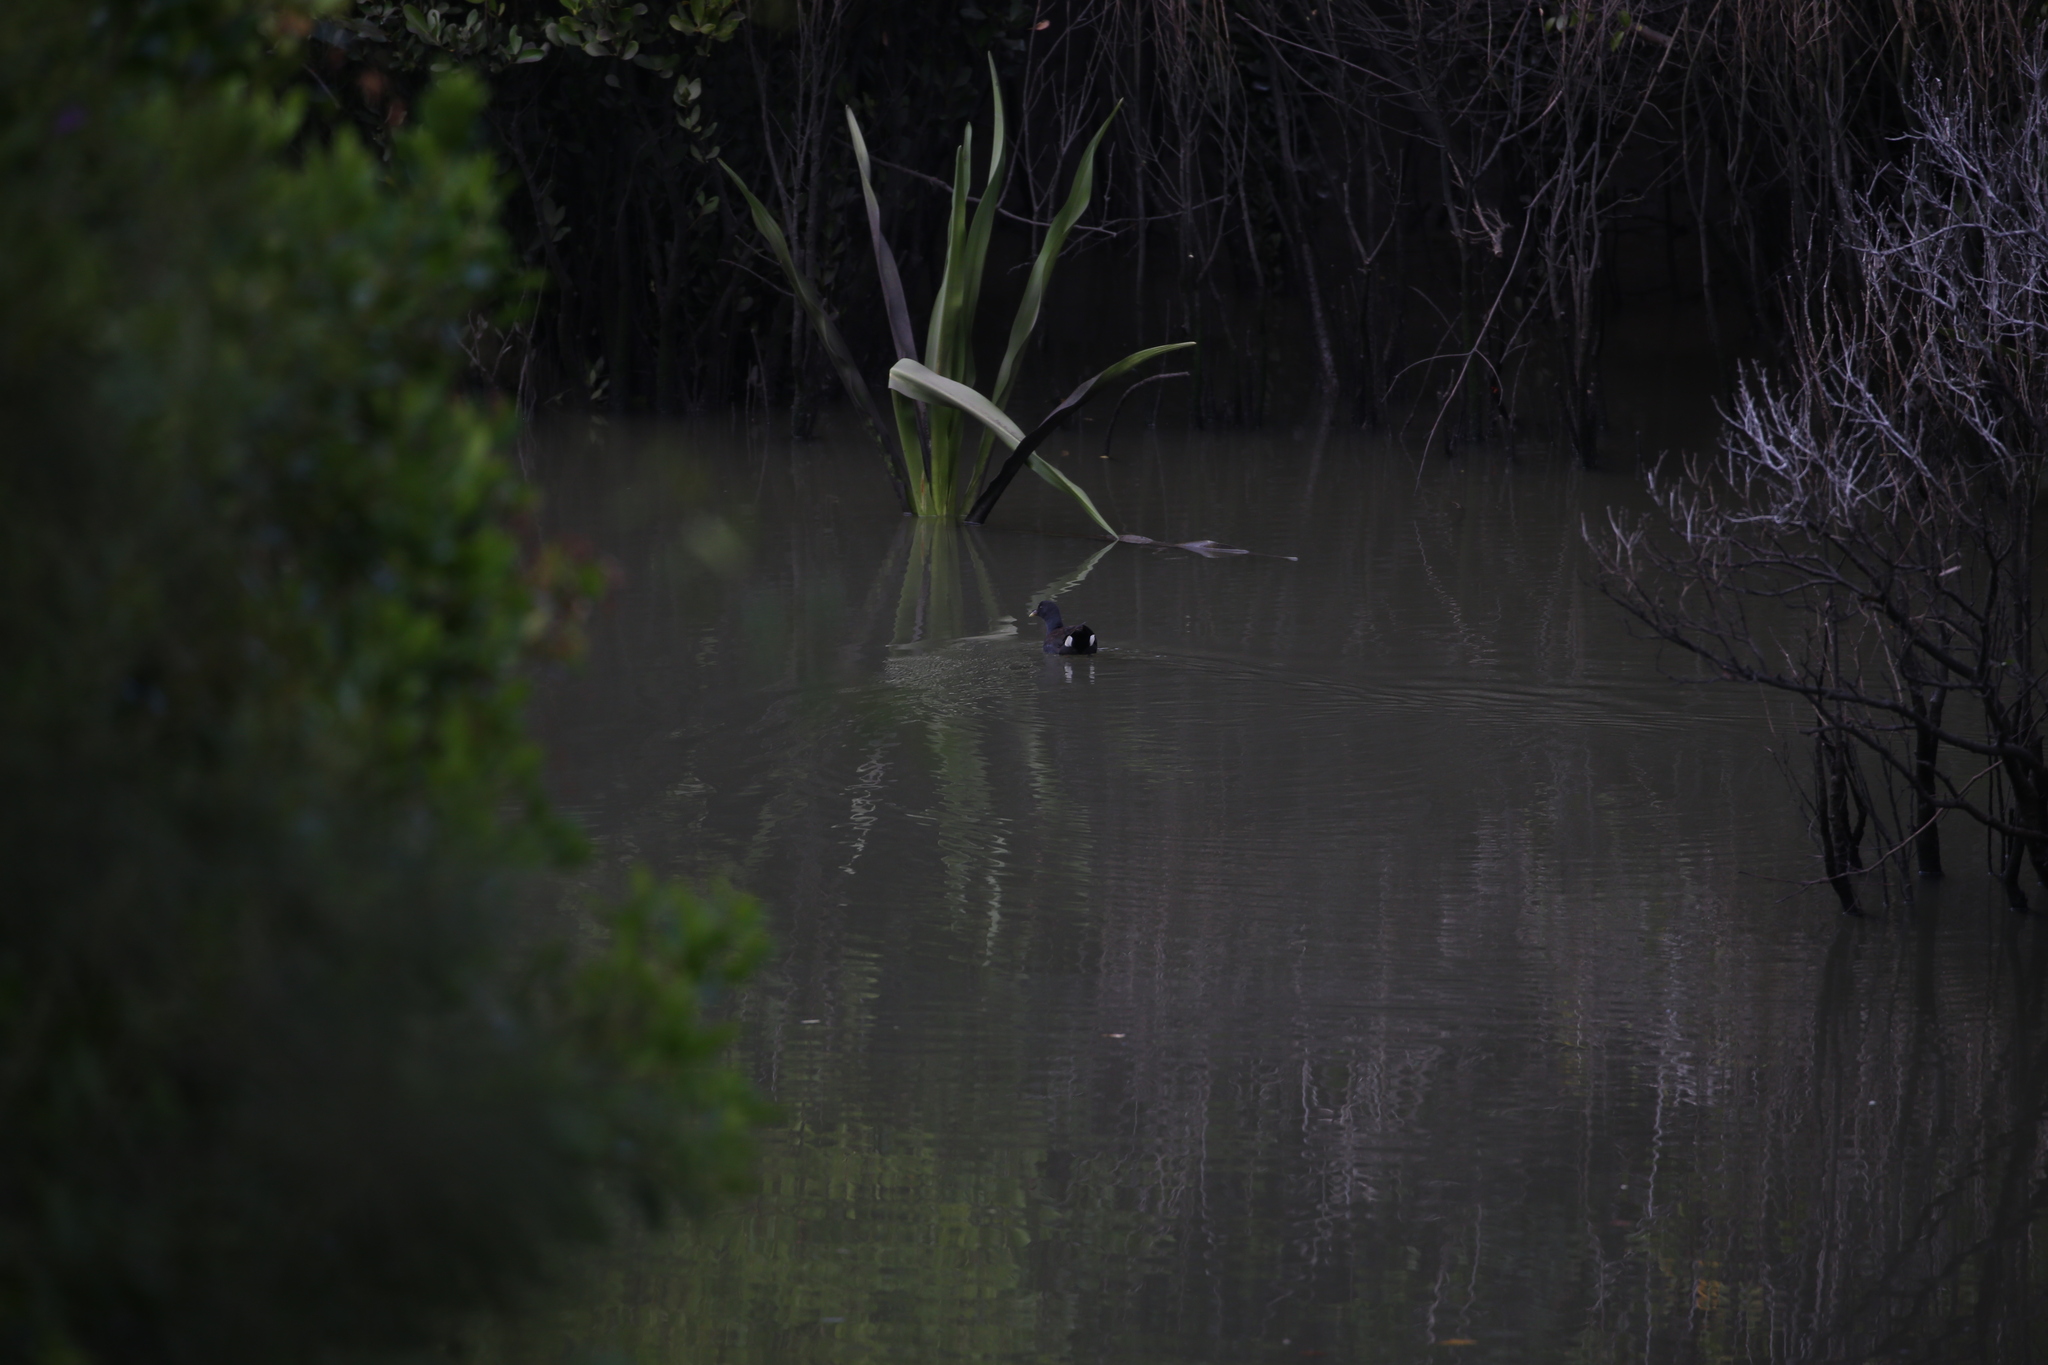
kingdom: Animalia
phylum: Chordata
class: Aves
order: Gruiformes
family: Rallidae
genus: Gallinula
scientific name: Gallinula tenebrosa
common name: Dusky moorhen
